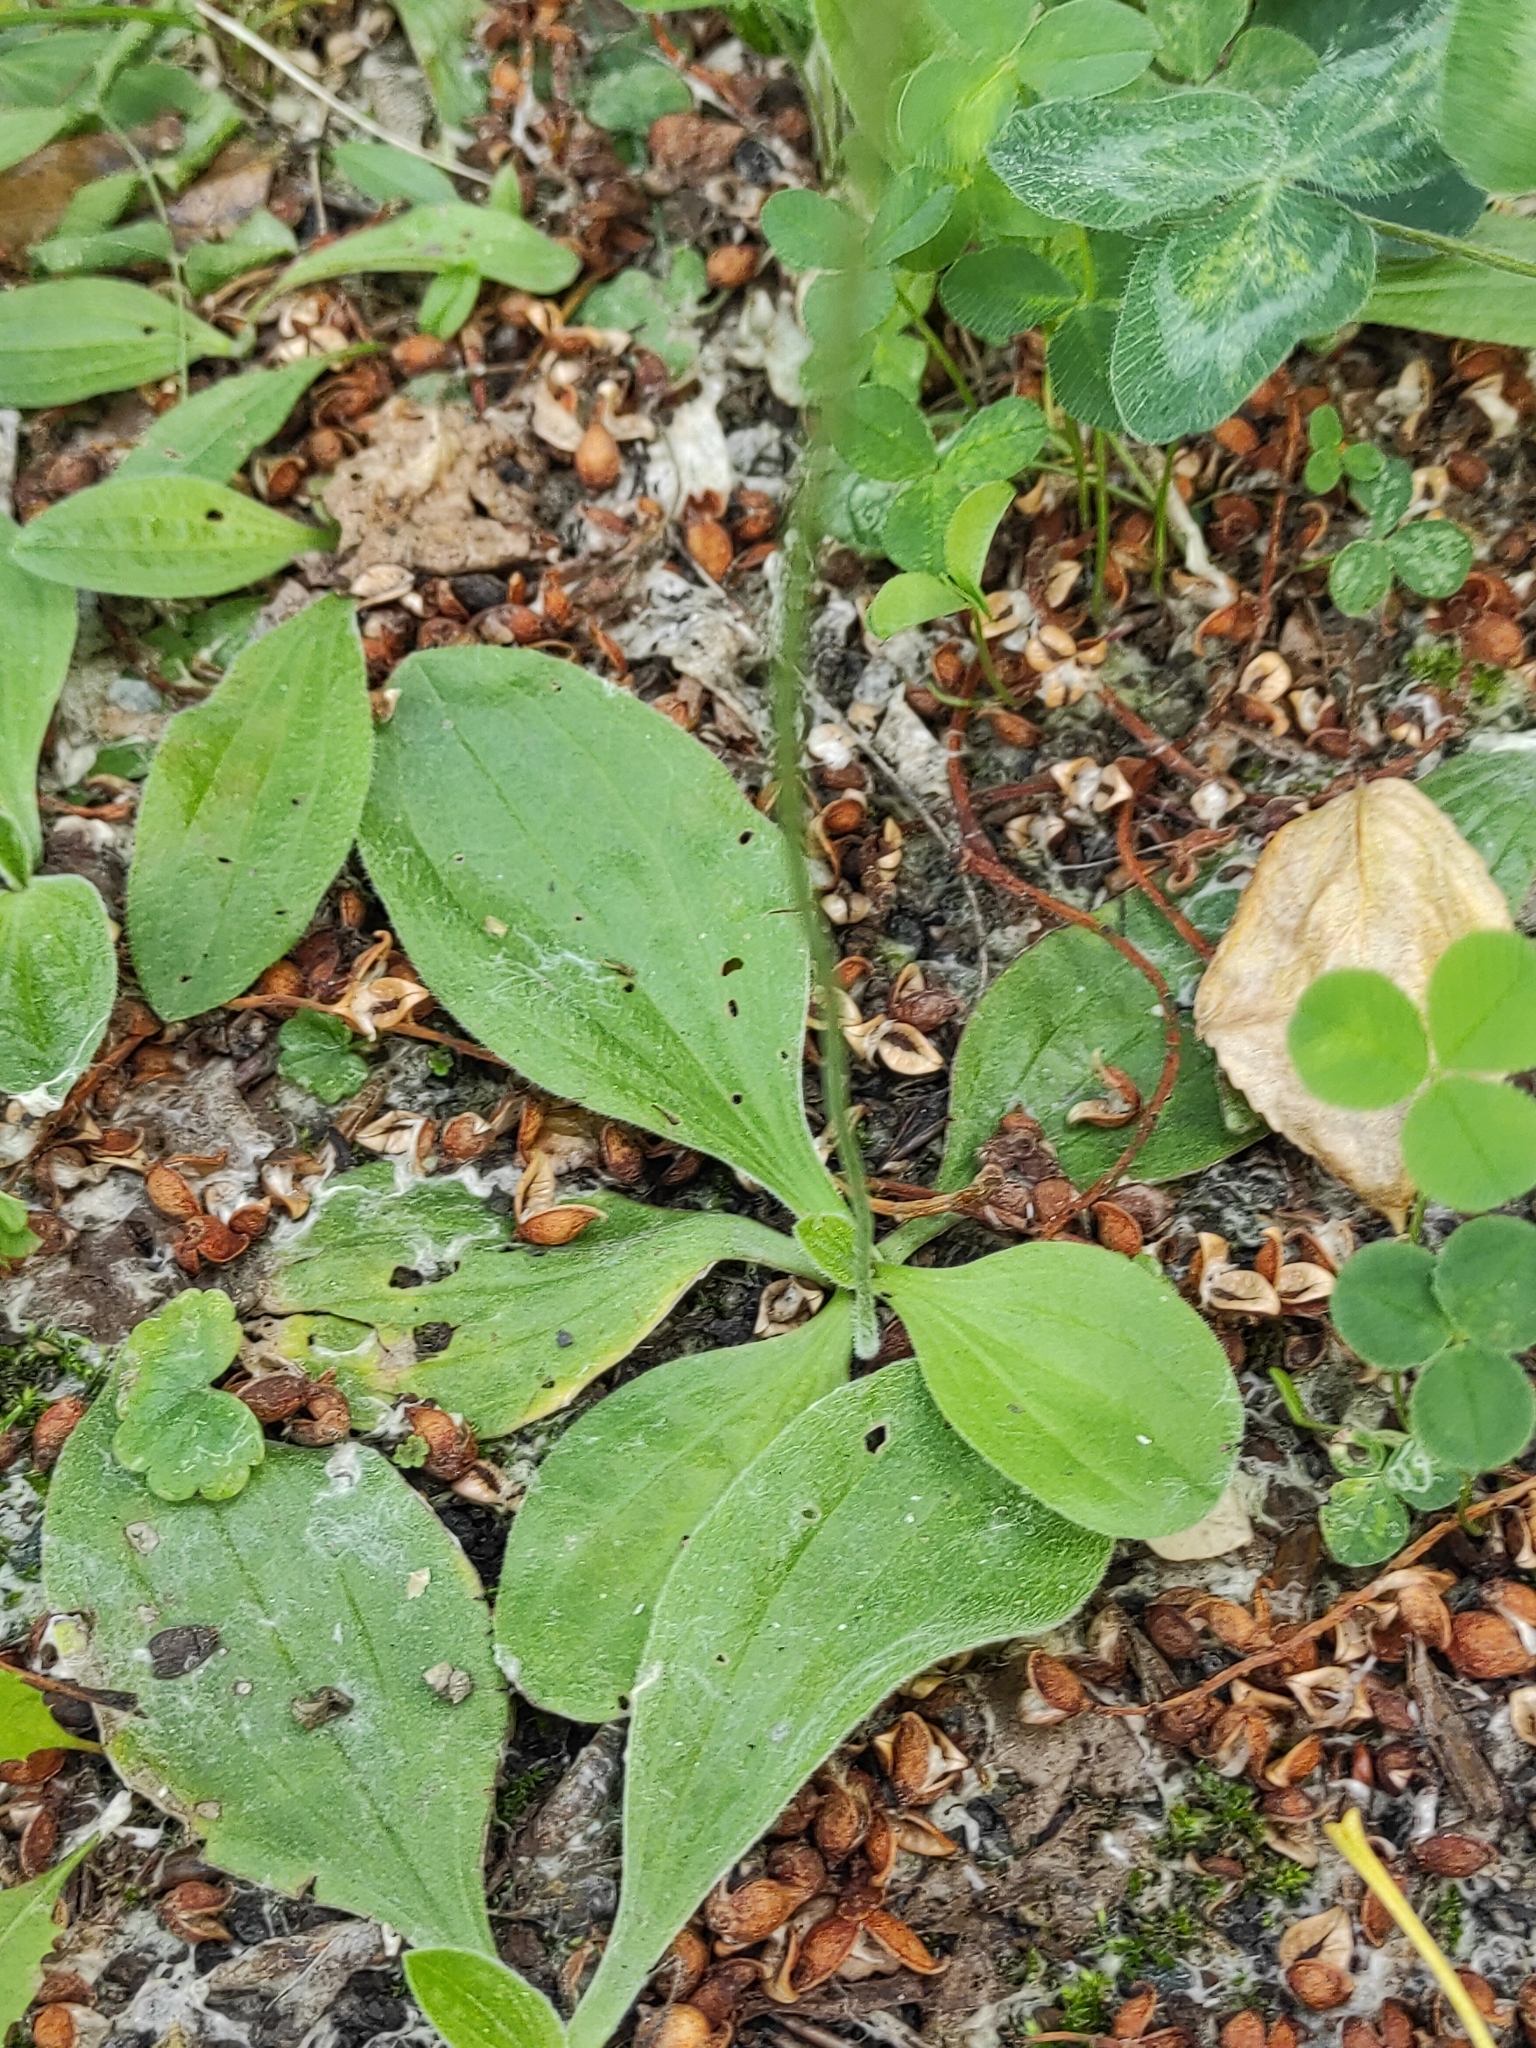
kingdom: Plantae
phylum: Tracheophyta
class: Magnoliopsida
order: Lamiales
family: Plantaginaceae
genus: Plantago
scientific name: Plantago media
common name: Hoary plantain
